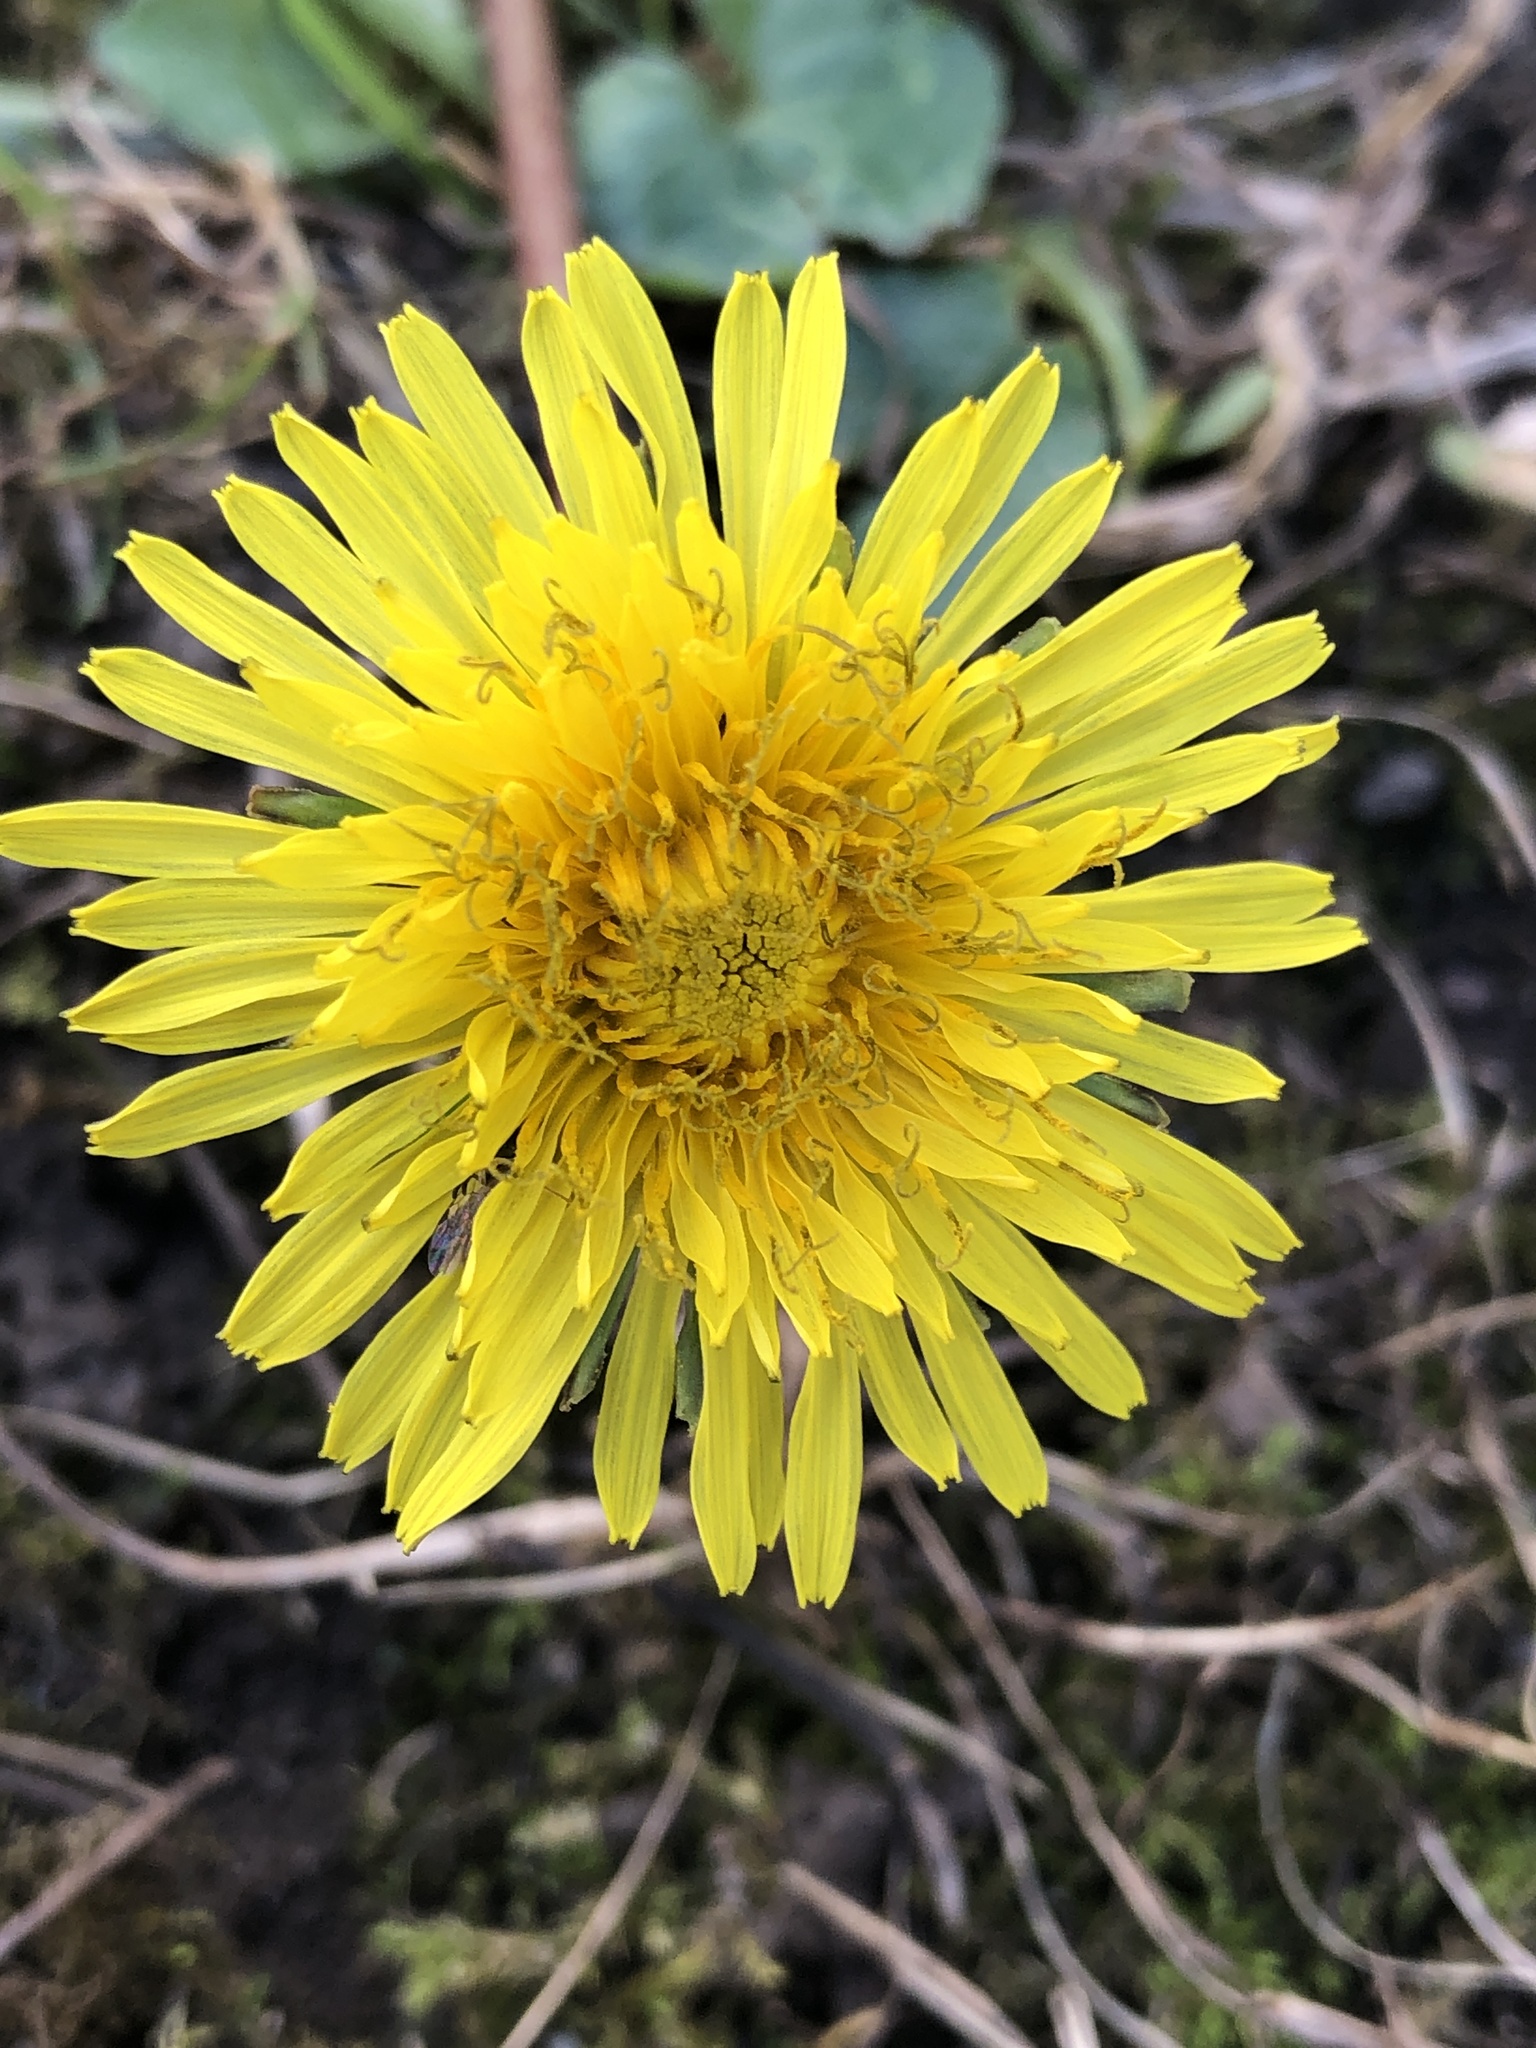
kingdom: Plantae
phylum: Tracheophyta
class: Magnoliopsida
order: Asterales
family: Asteraceae
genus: Taraxacum
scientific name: Taraxacum officinale
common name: Common dandelion
